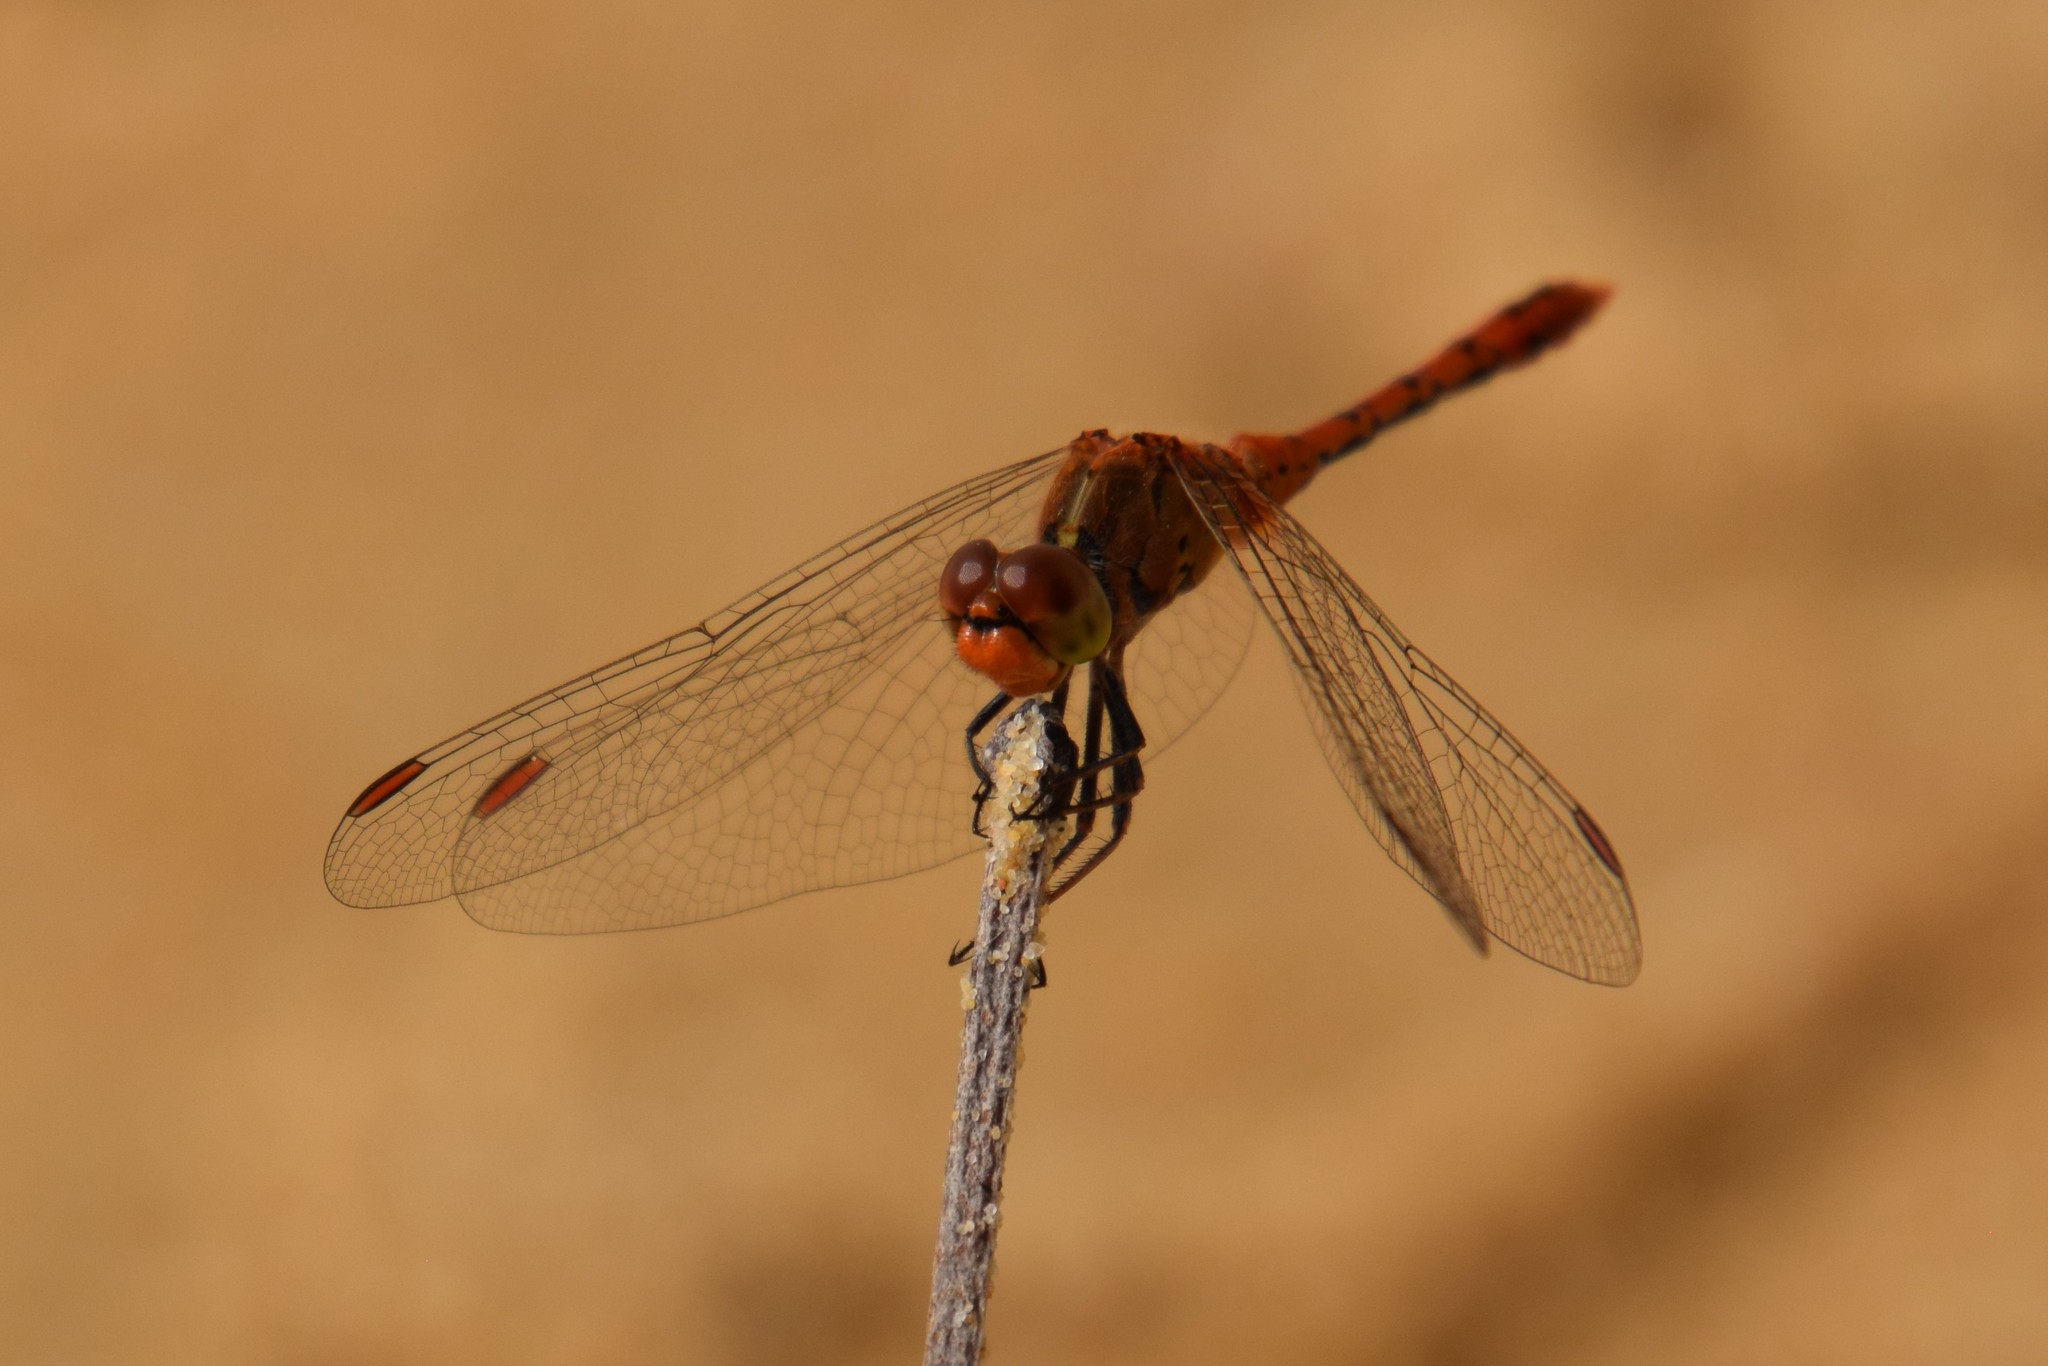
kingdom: Animalia
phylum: Arthropoda
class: Insecta
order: Odonata
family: Libellulidae
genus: Diplacodes
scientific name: Diplacodes bipunctata
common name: Red percher dragonfly
